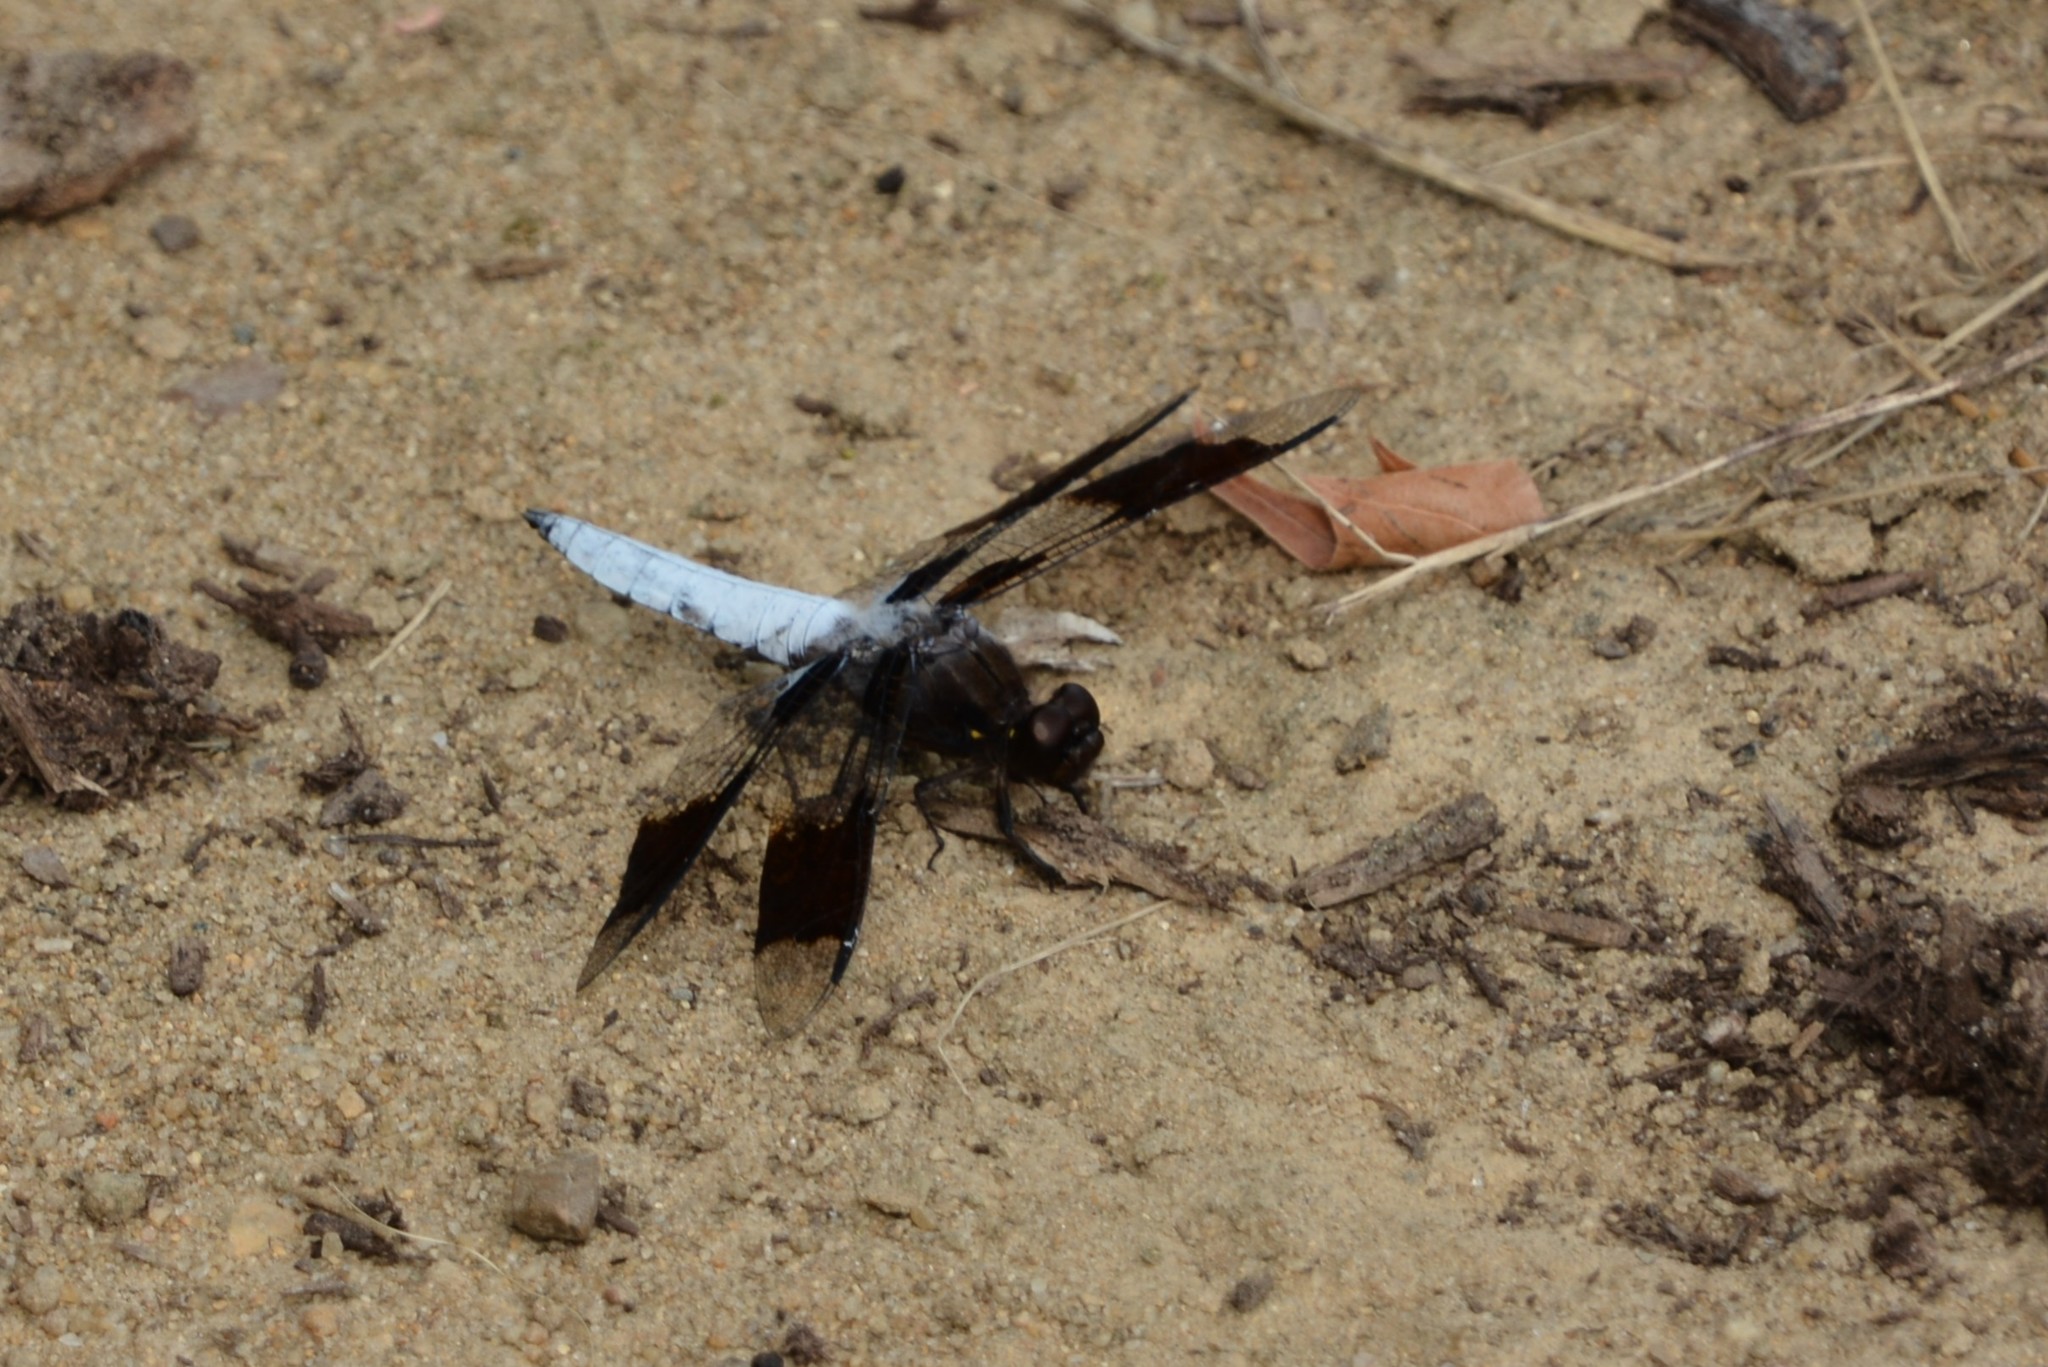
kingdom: Animalia
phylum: Arthropoda
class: Insecta
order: Odonata
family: Libellulidae
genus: Plathemis
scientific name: Plathemis lydia
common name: Common whitetail
